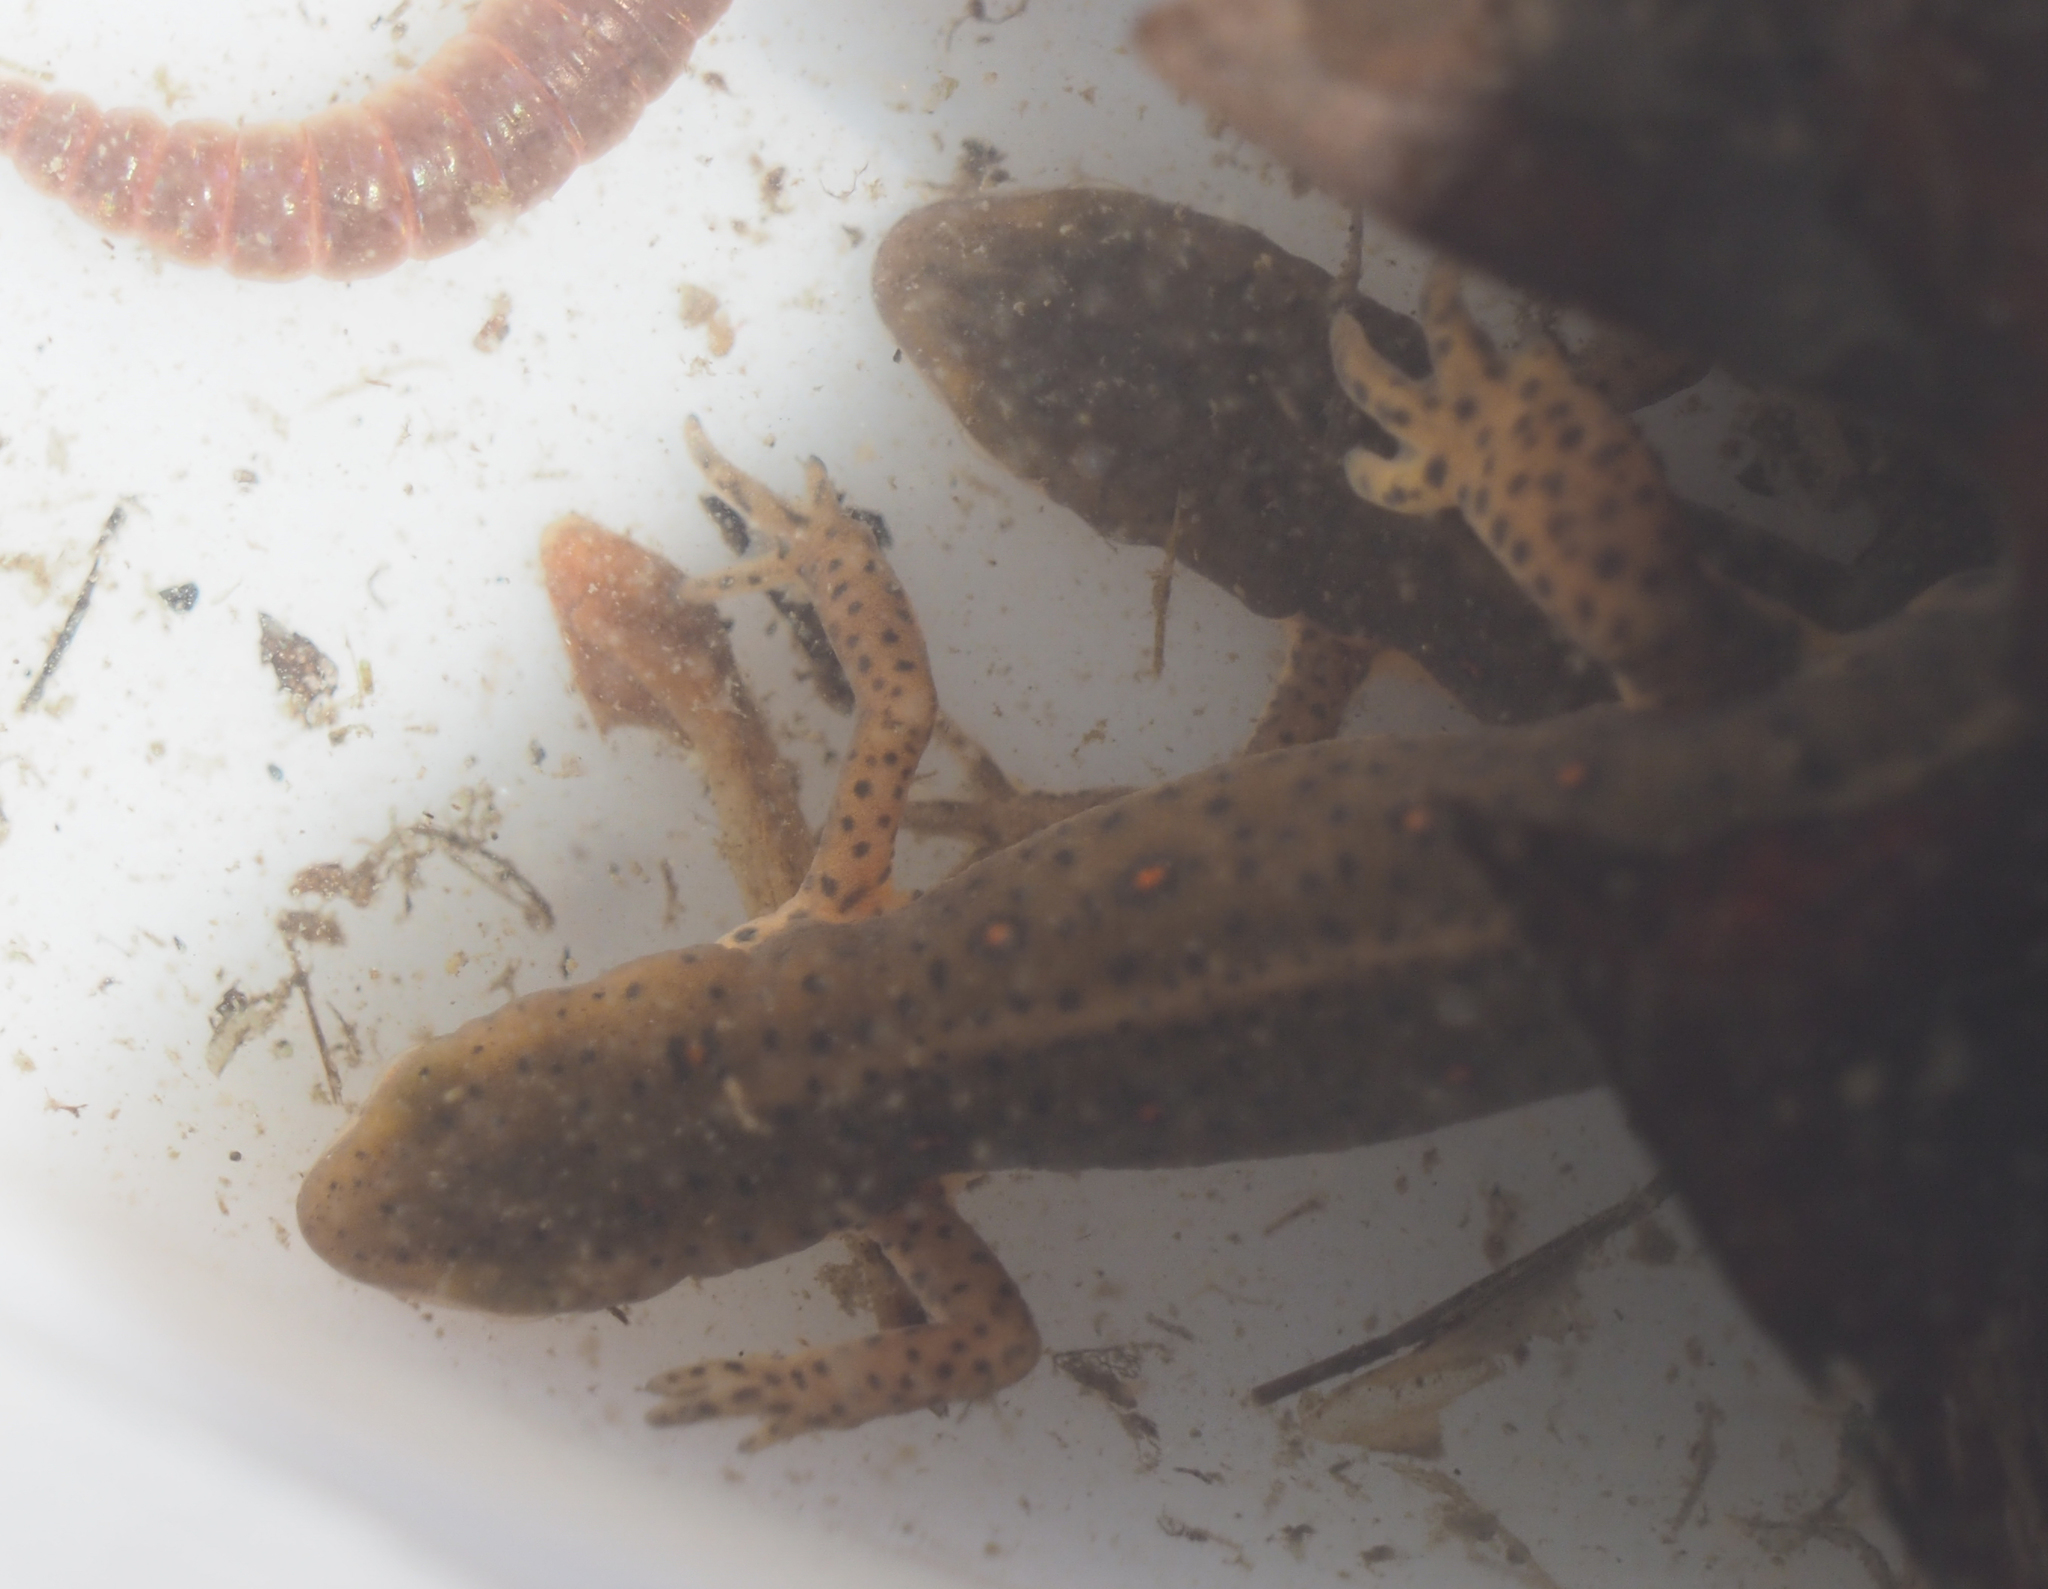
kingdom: Animalia
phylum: Chordata
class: Amphibia
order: Caudata
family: Salamandridae
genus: Notophthalmus
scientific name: Notophthalmus viridescens
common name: Eastern newt
